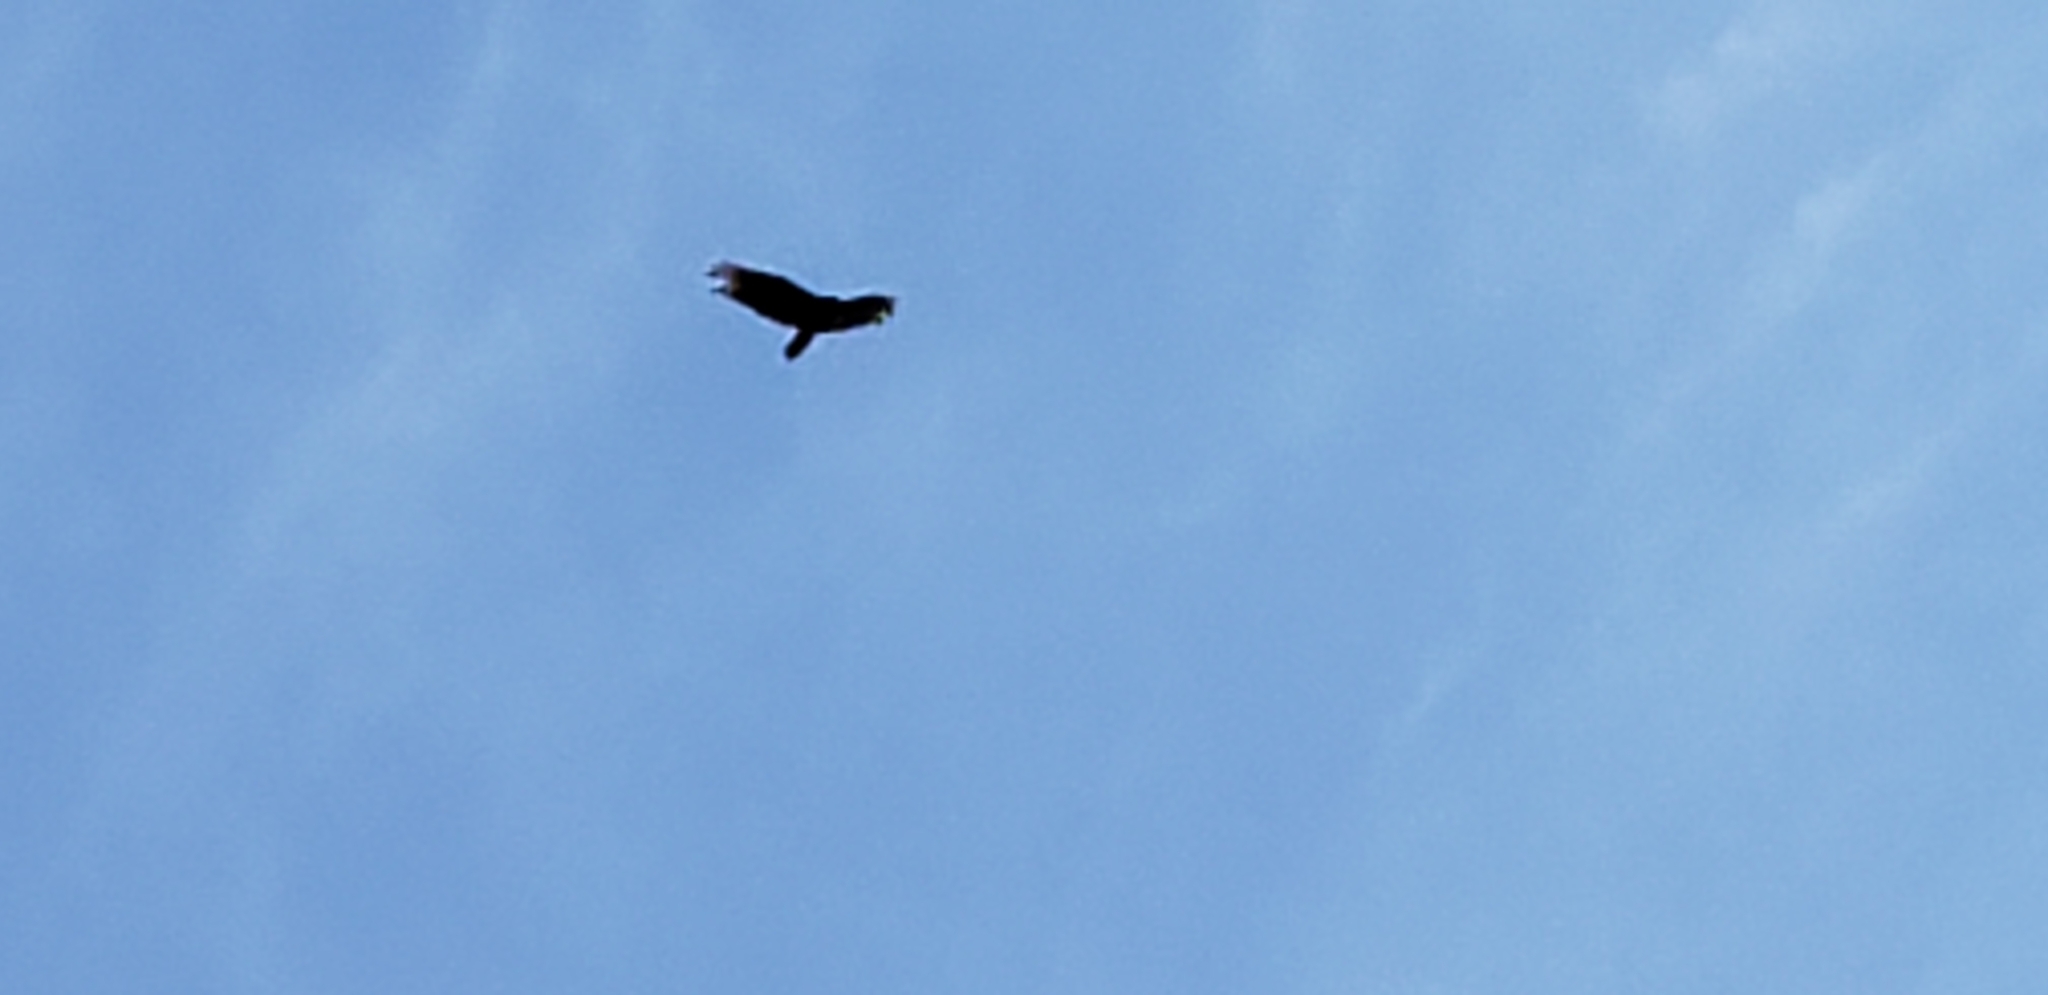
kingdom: Animalia
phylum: Chordata
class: Aves
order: Accipitriformes
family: Cathartidae
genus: Cathartes
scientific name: Cathartes aura
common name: Turkey vulture
